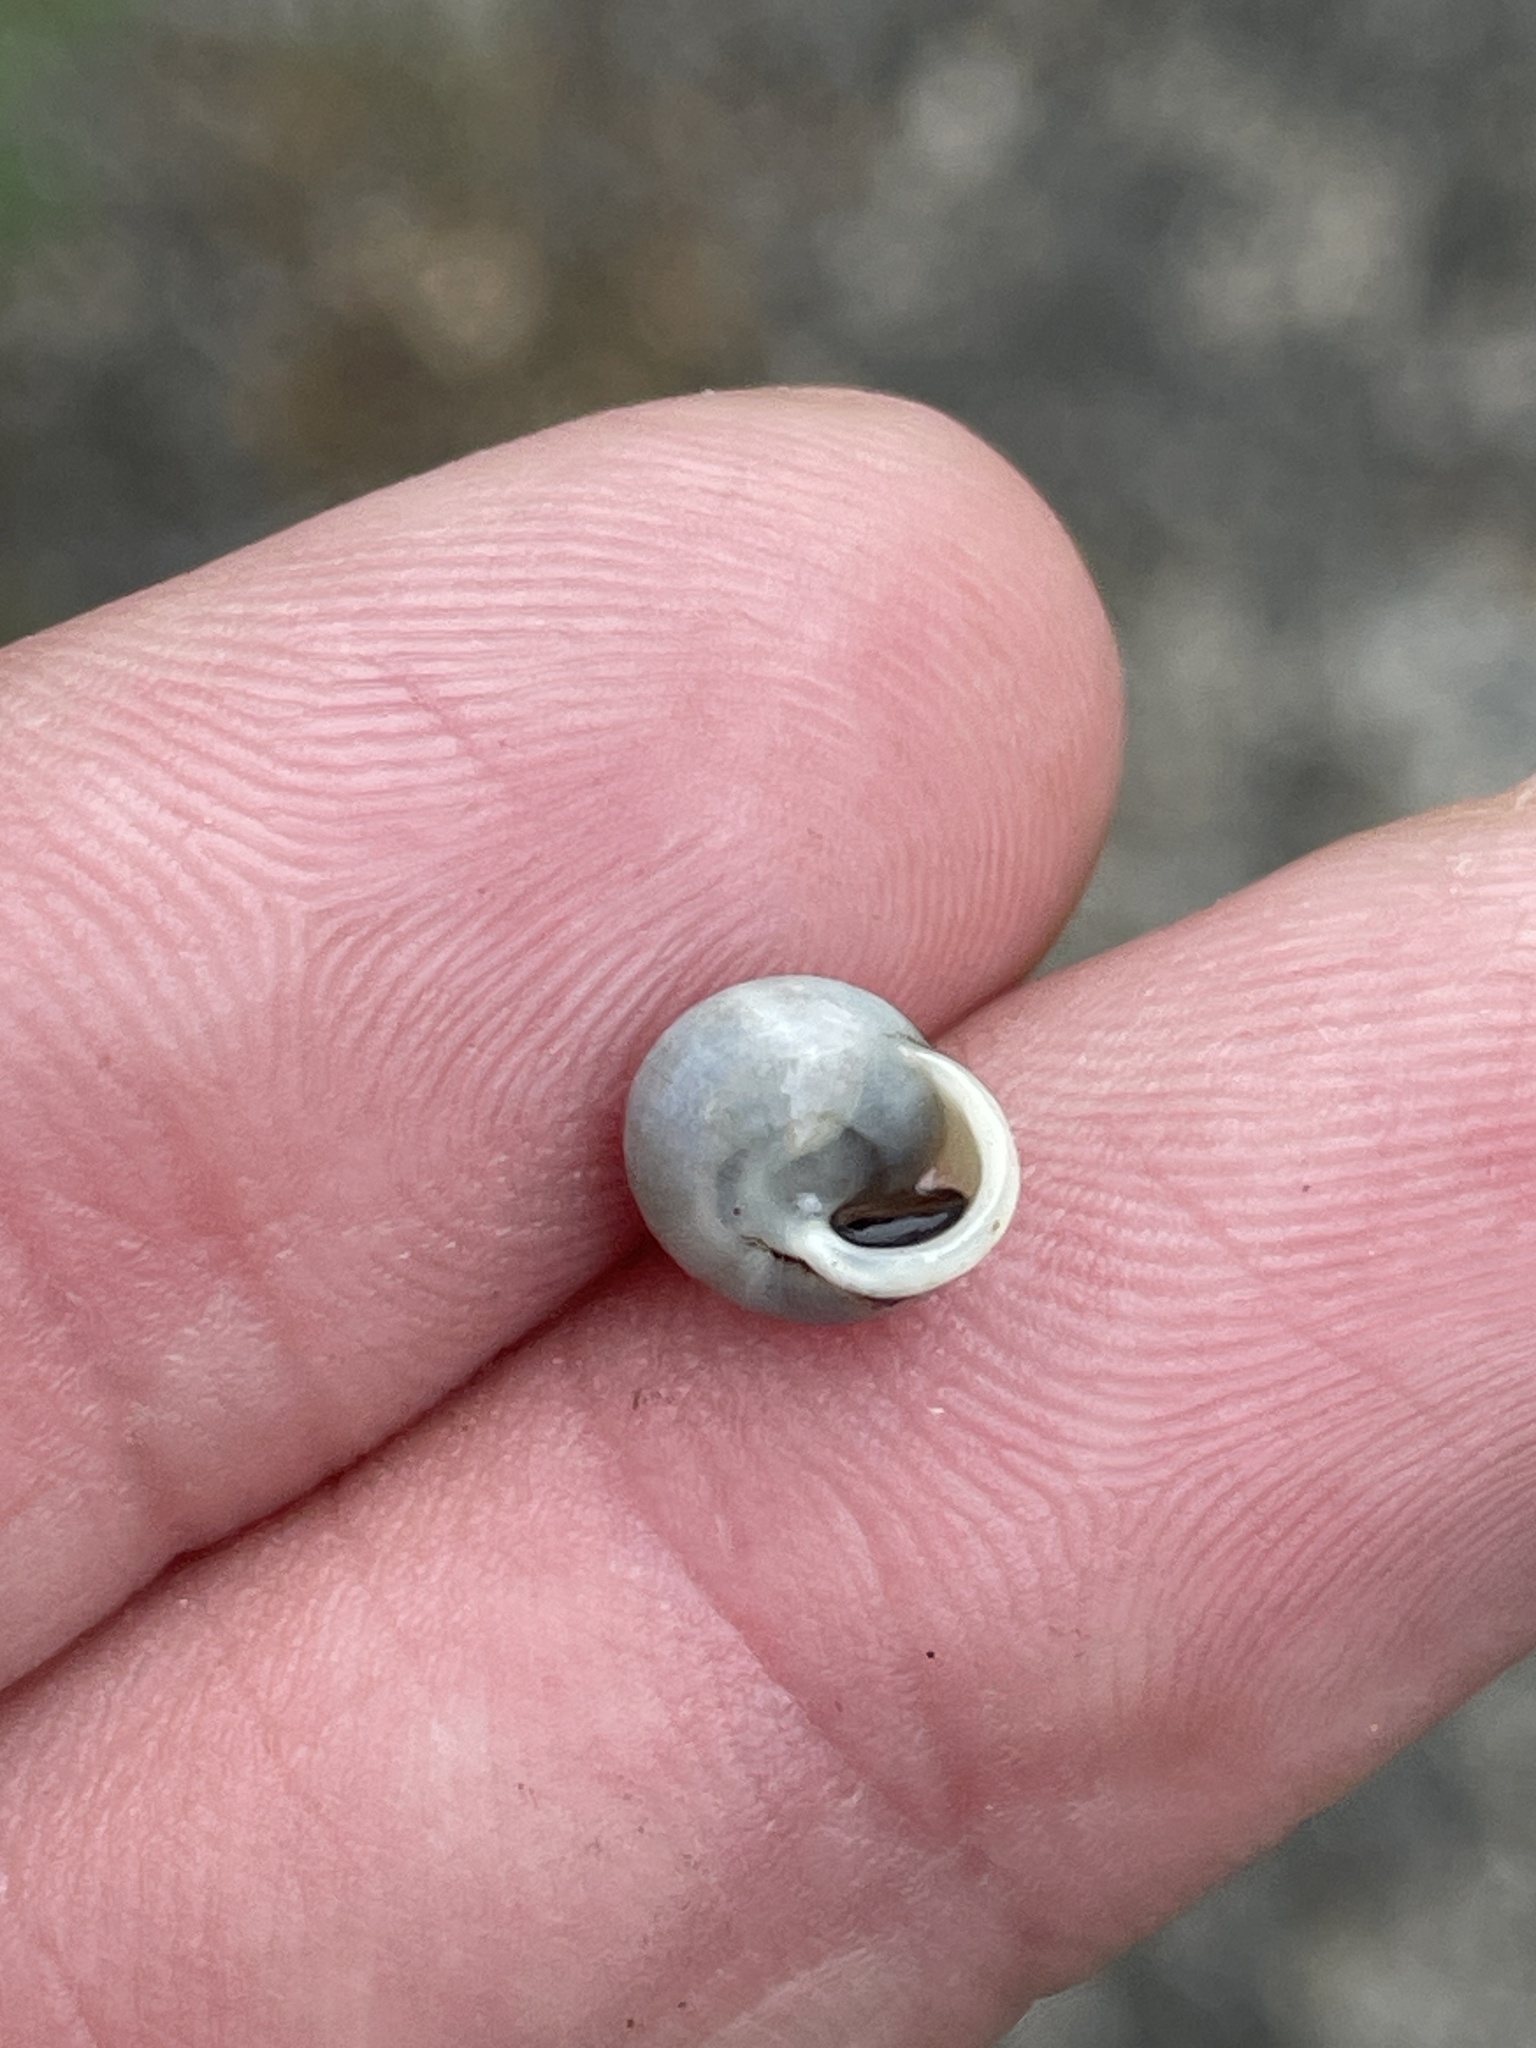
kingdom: Animalia
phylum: Mollusca
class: Gastropoda
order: Cycloneritida
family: Helicinidae
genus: Helicina
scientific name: Helicina orbiculata
